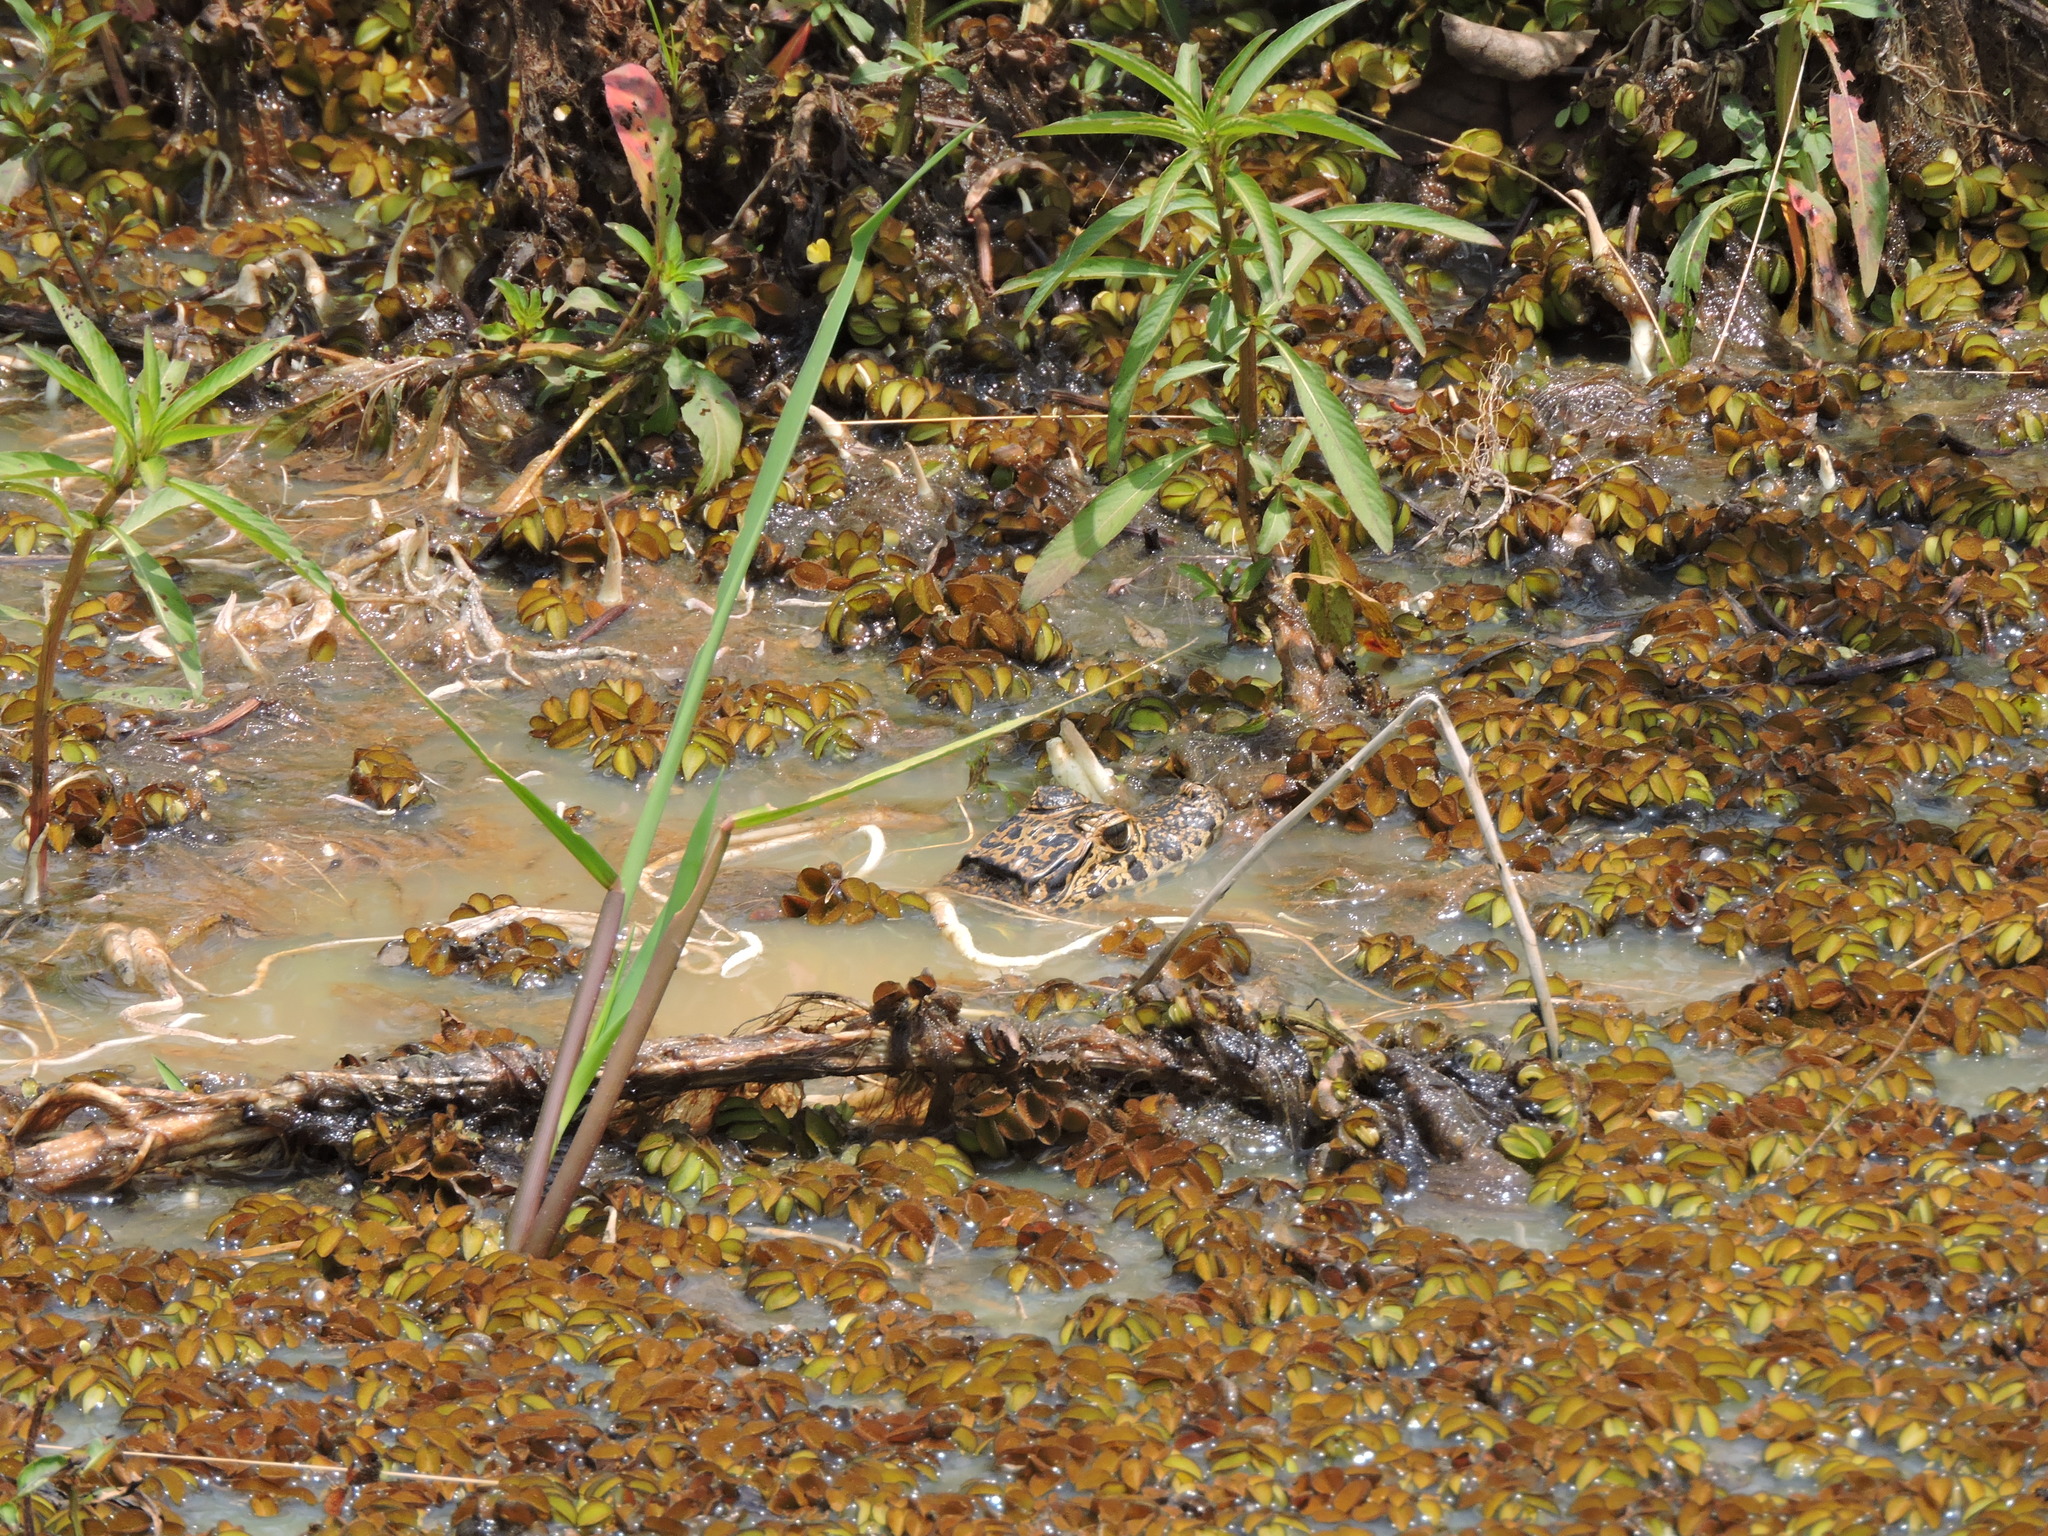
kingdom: Animalia
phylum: Chordata
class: Crocodylia
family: Alligatoridae
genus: Caiman
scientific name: Caiman yacare
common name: Yacare caiman
